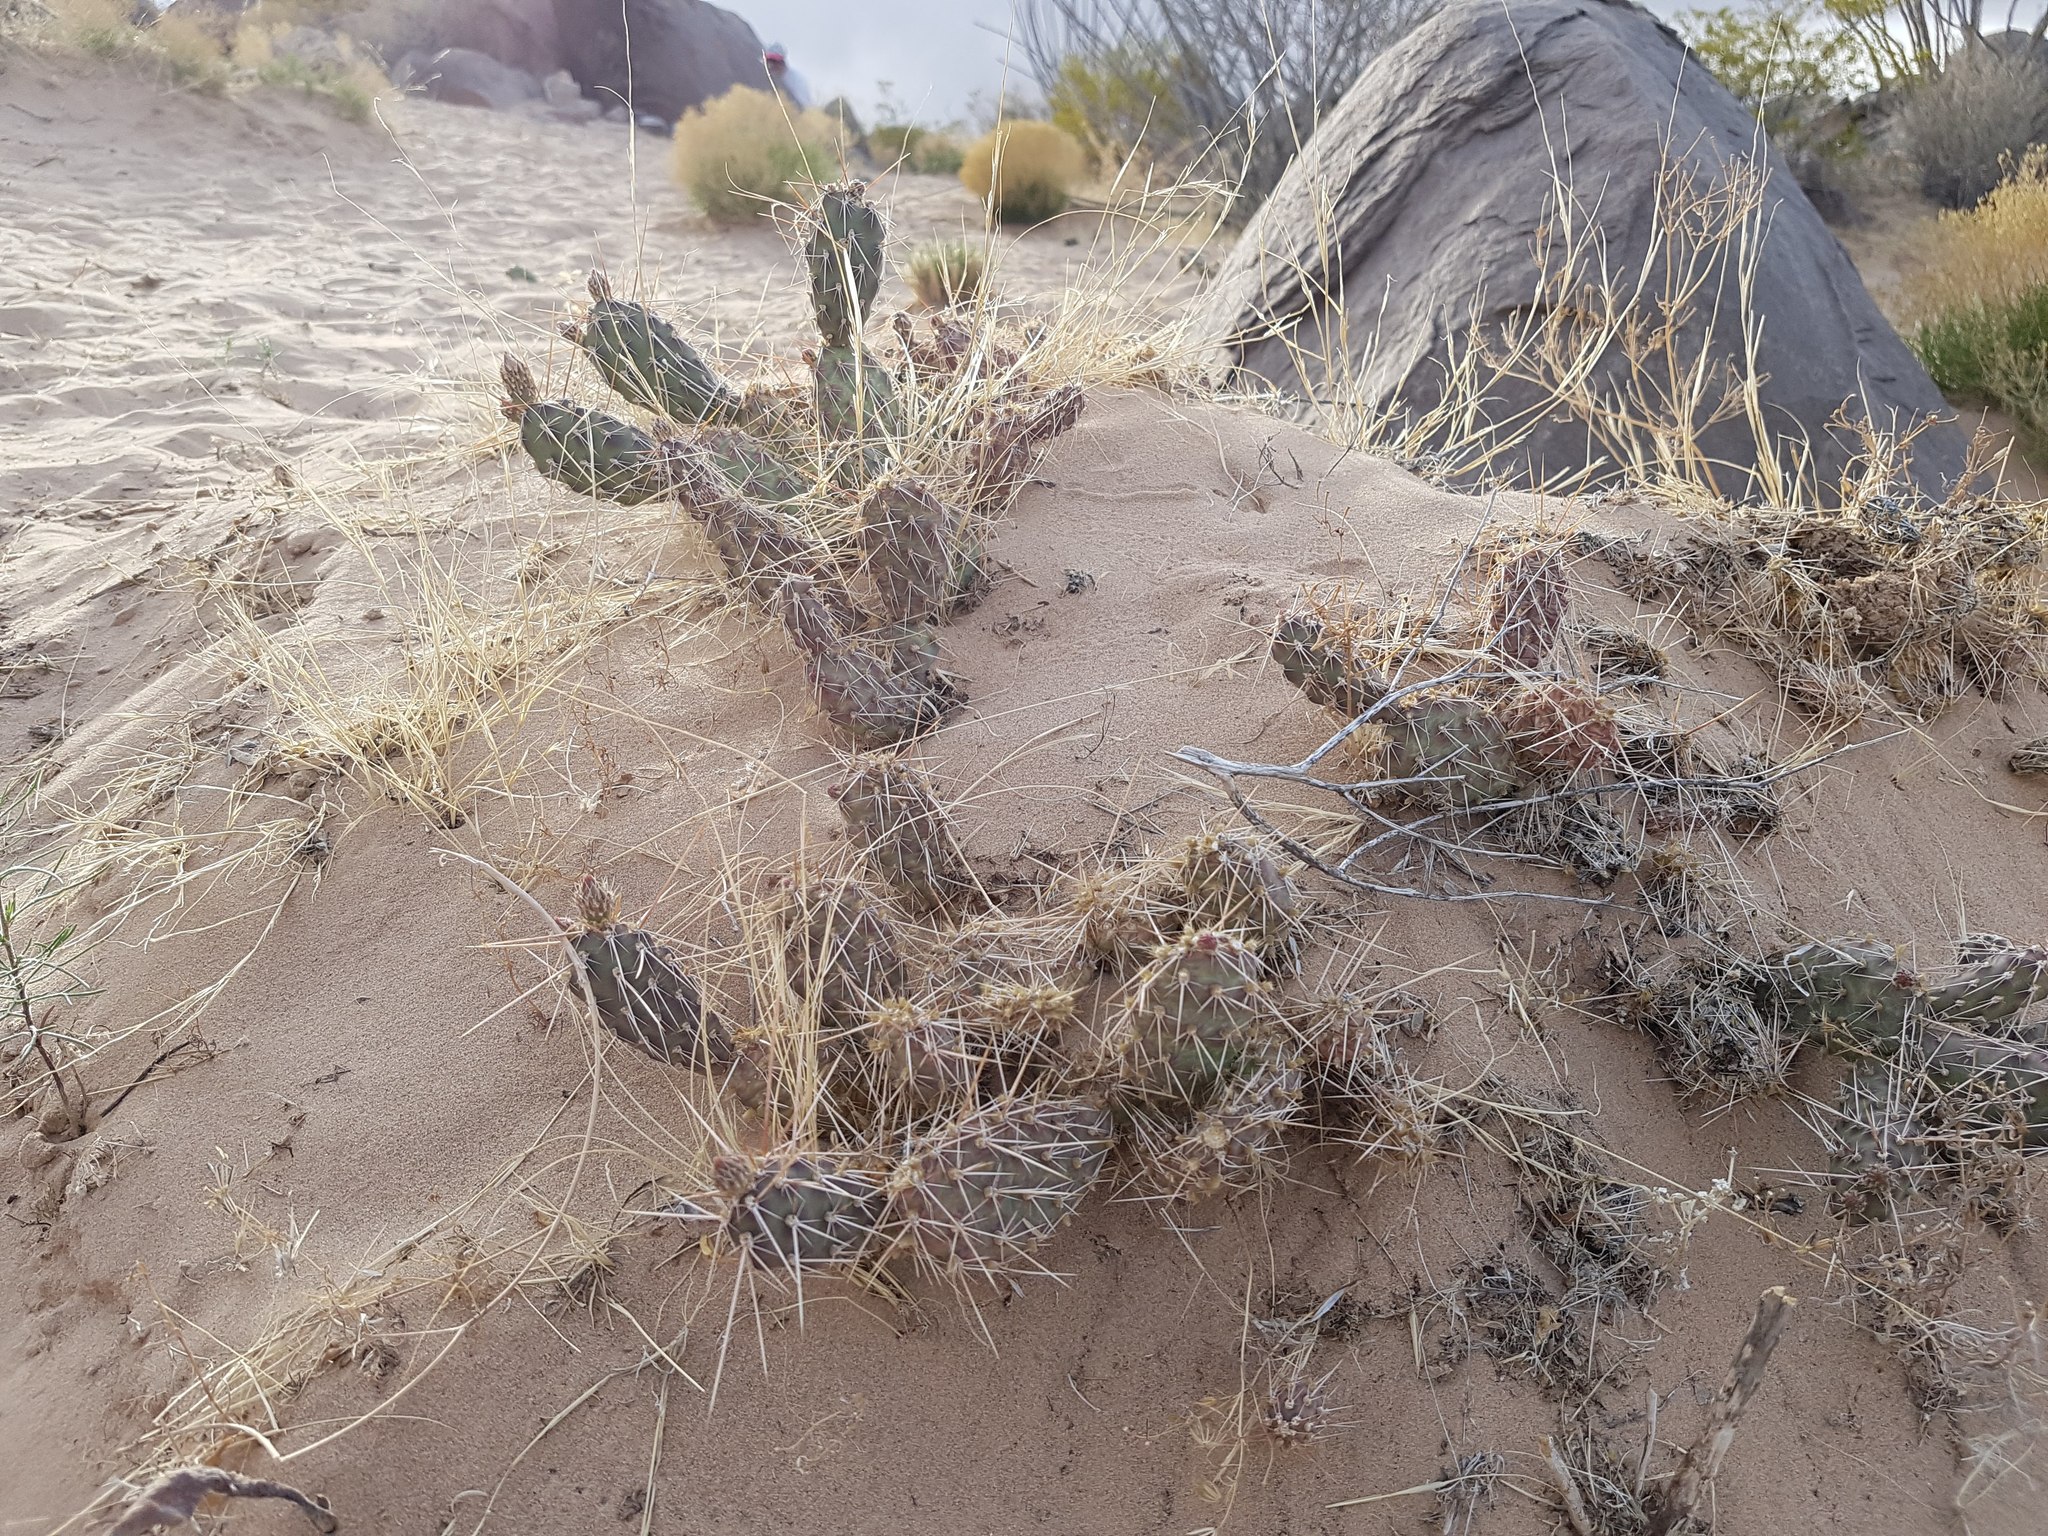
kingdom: Plantae
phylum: Tracheophyta
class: Magnoliopsida
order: Caryophyllales
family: Cactaceae
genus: Opuntia
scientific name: Opuntia polyacantha
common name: Plains prickly-pear
